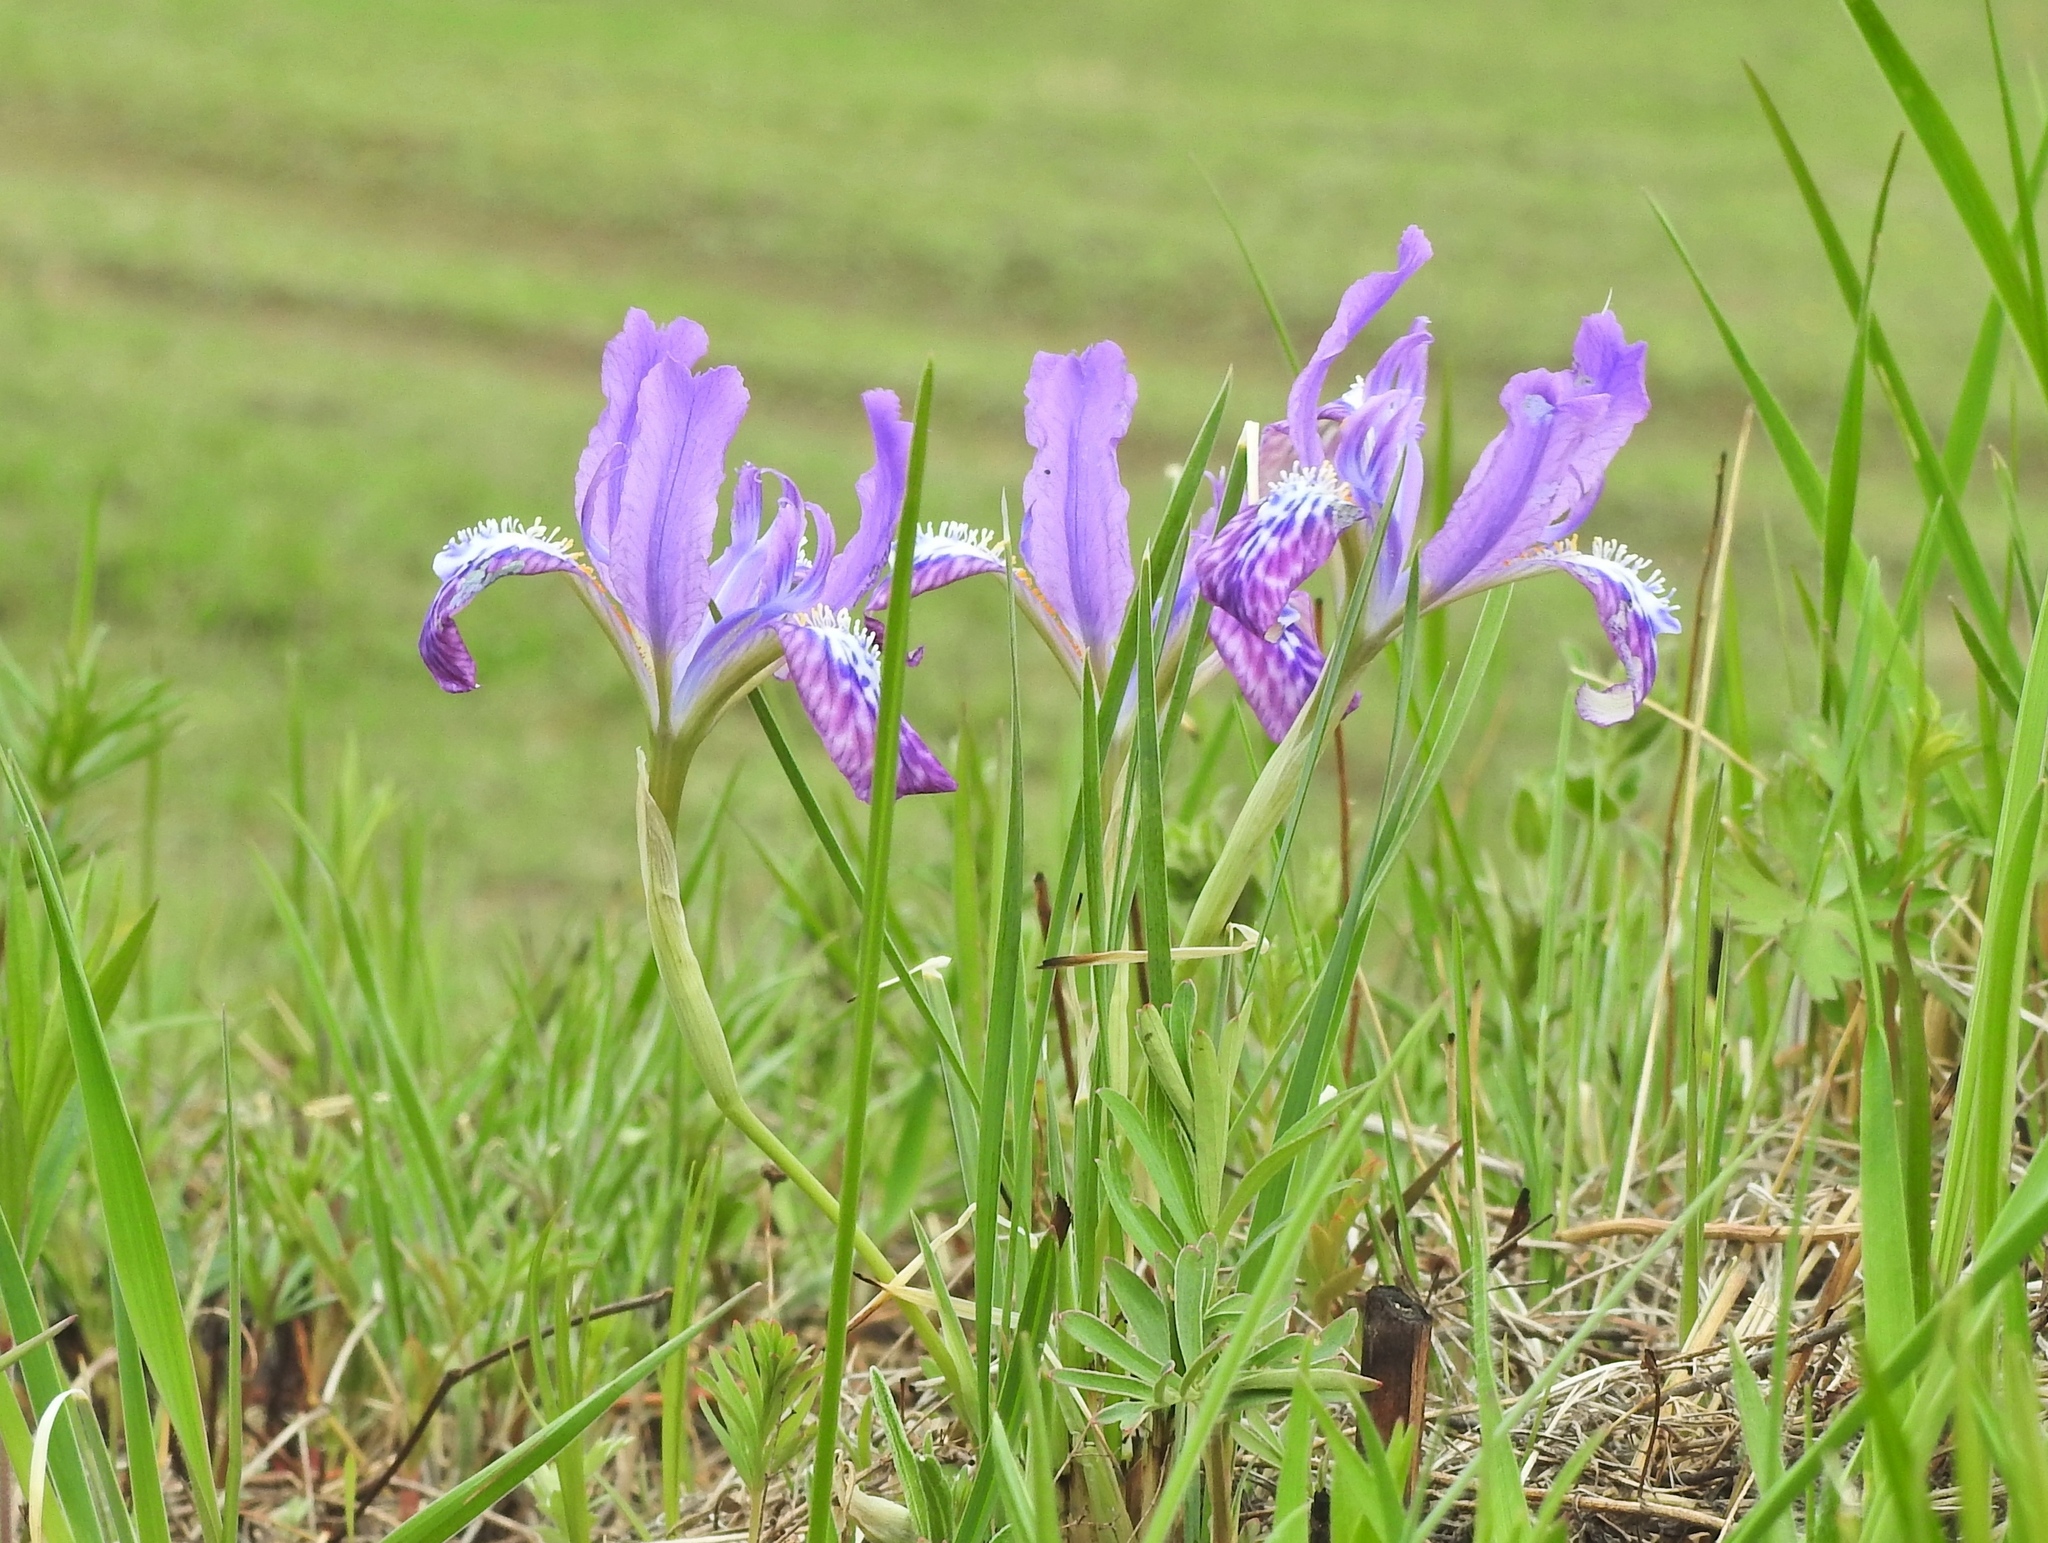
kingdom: Plantae
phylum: Tracheophyta
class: Liliopsida
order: Asparagales
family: Iridaceae
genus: Iris
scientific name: Iris ivanovae
